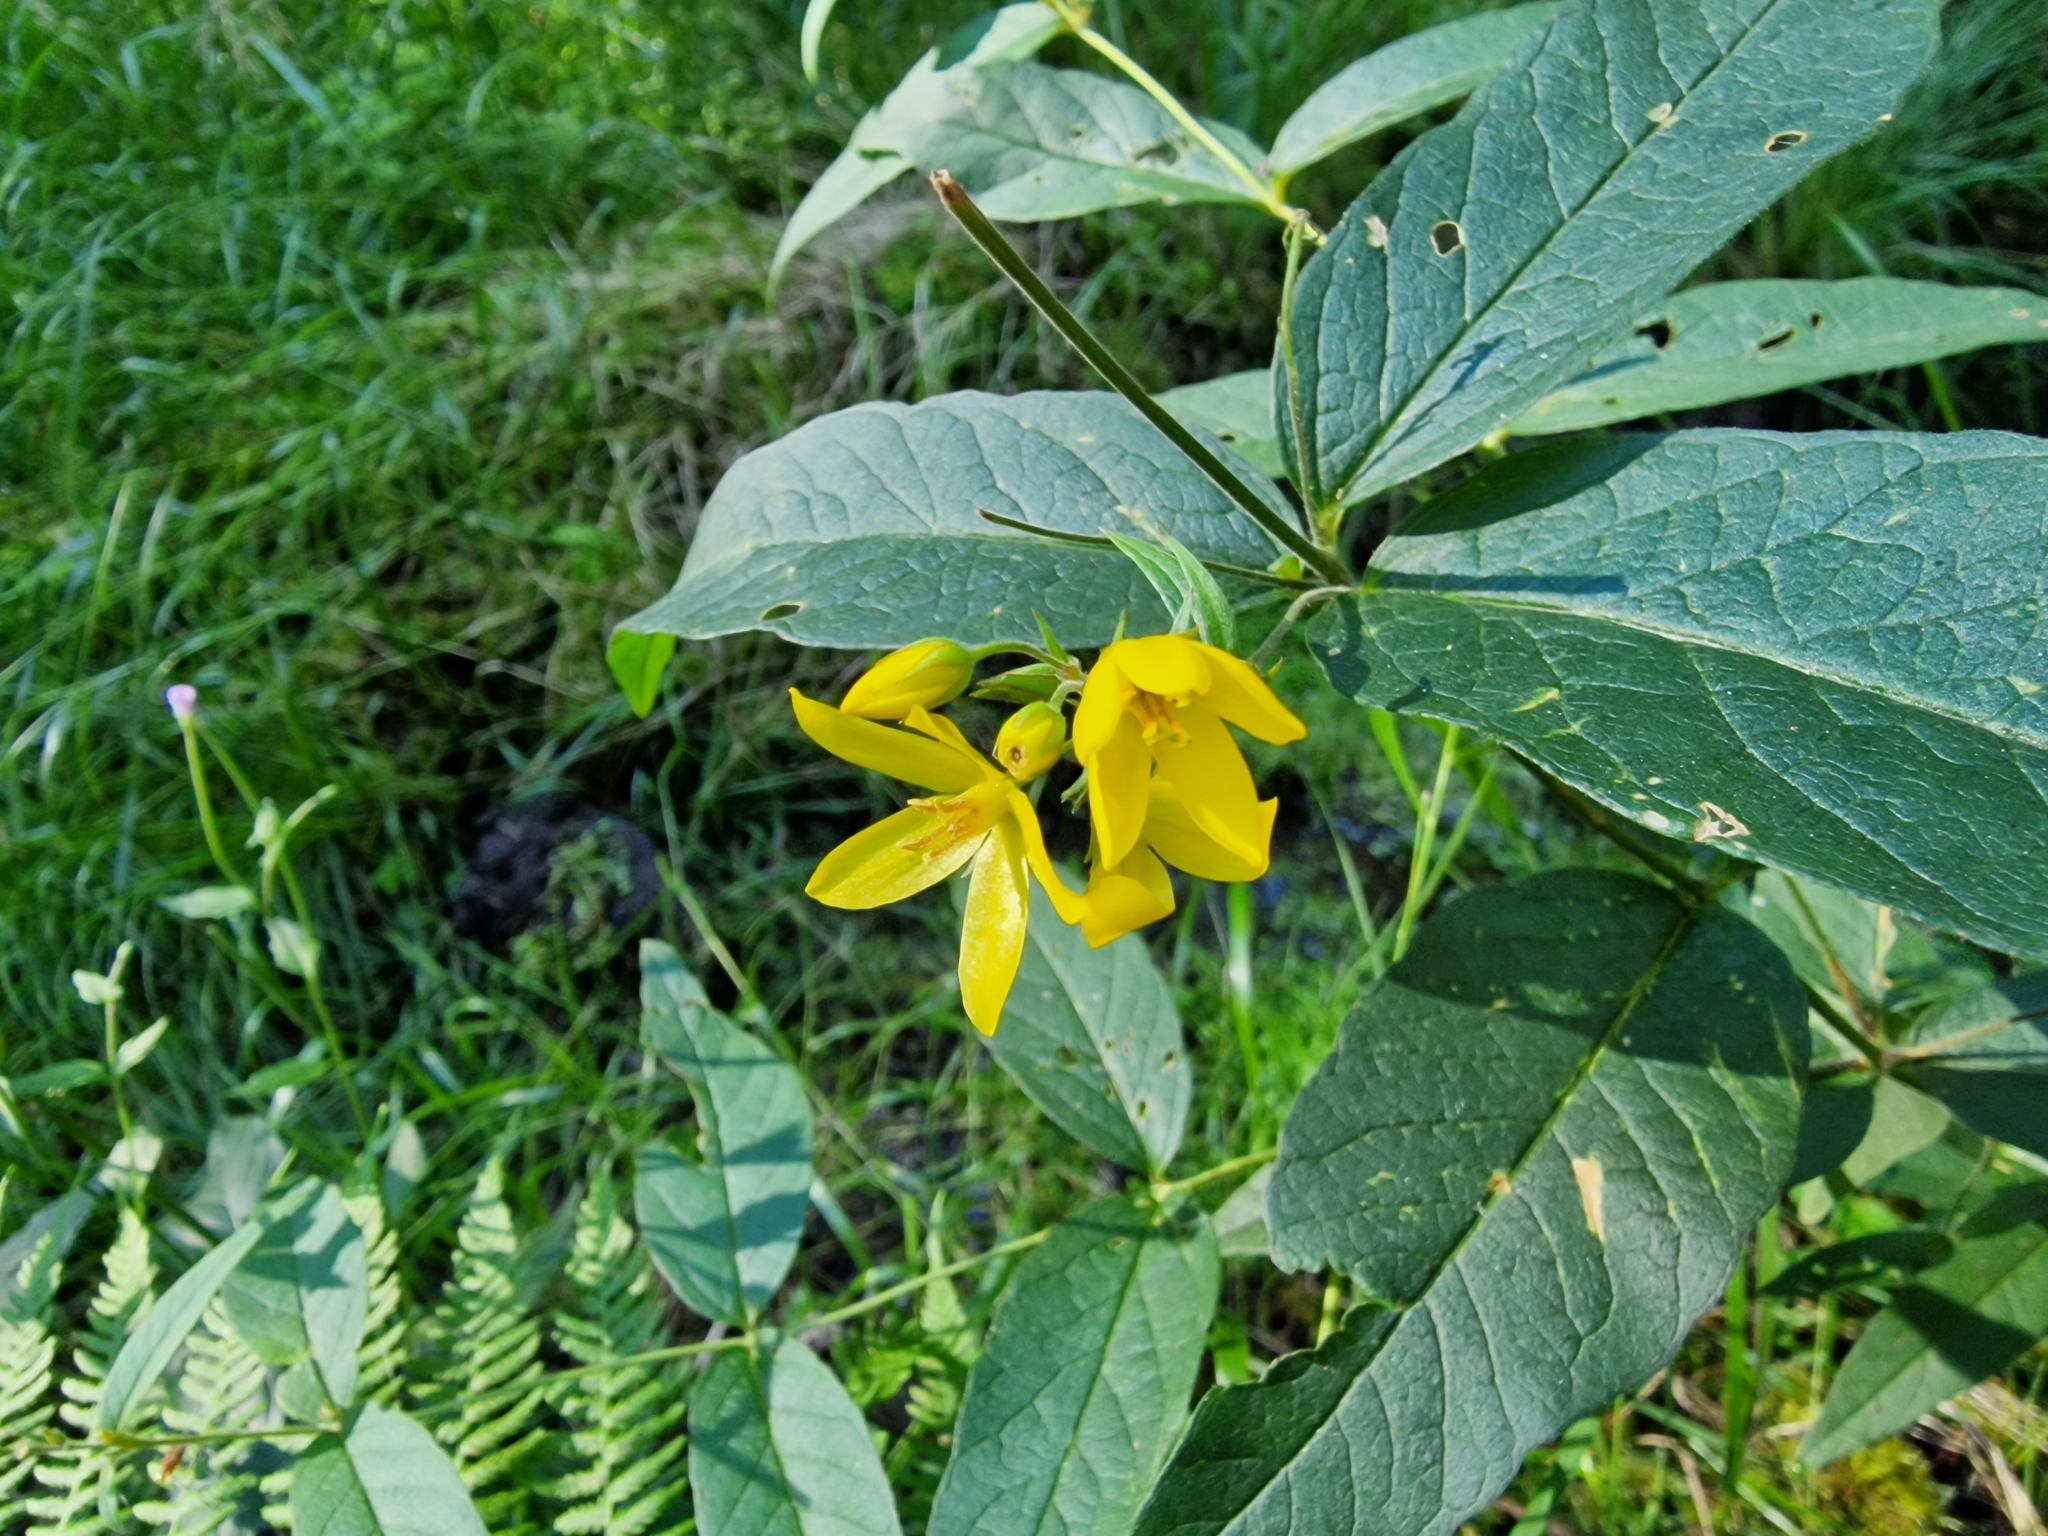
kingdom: Plantae
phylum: Tracheophyta
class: Magnoliopsida
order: Ericales
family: Primulaceae
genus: Lysimachia
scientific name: Lysimachia vulgaris
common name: Yellow loosestrife
